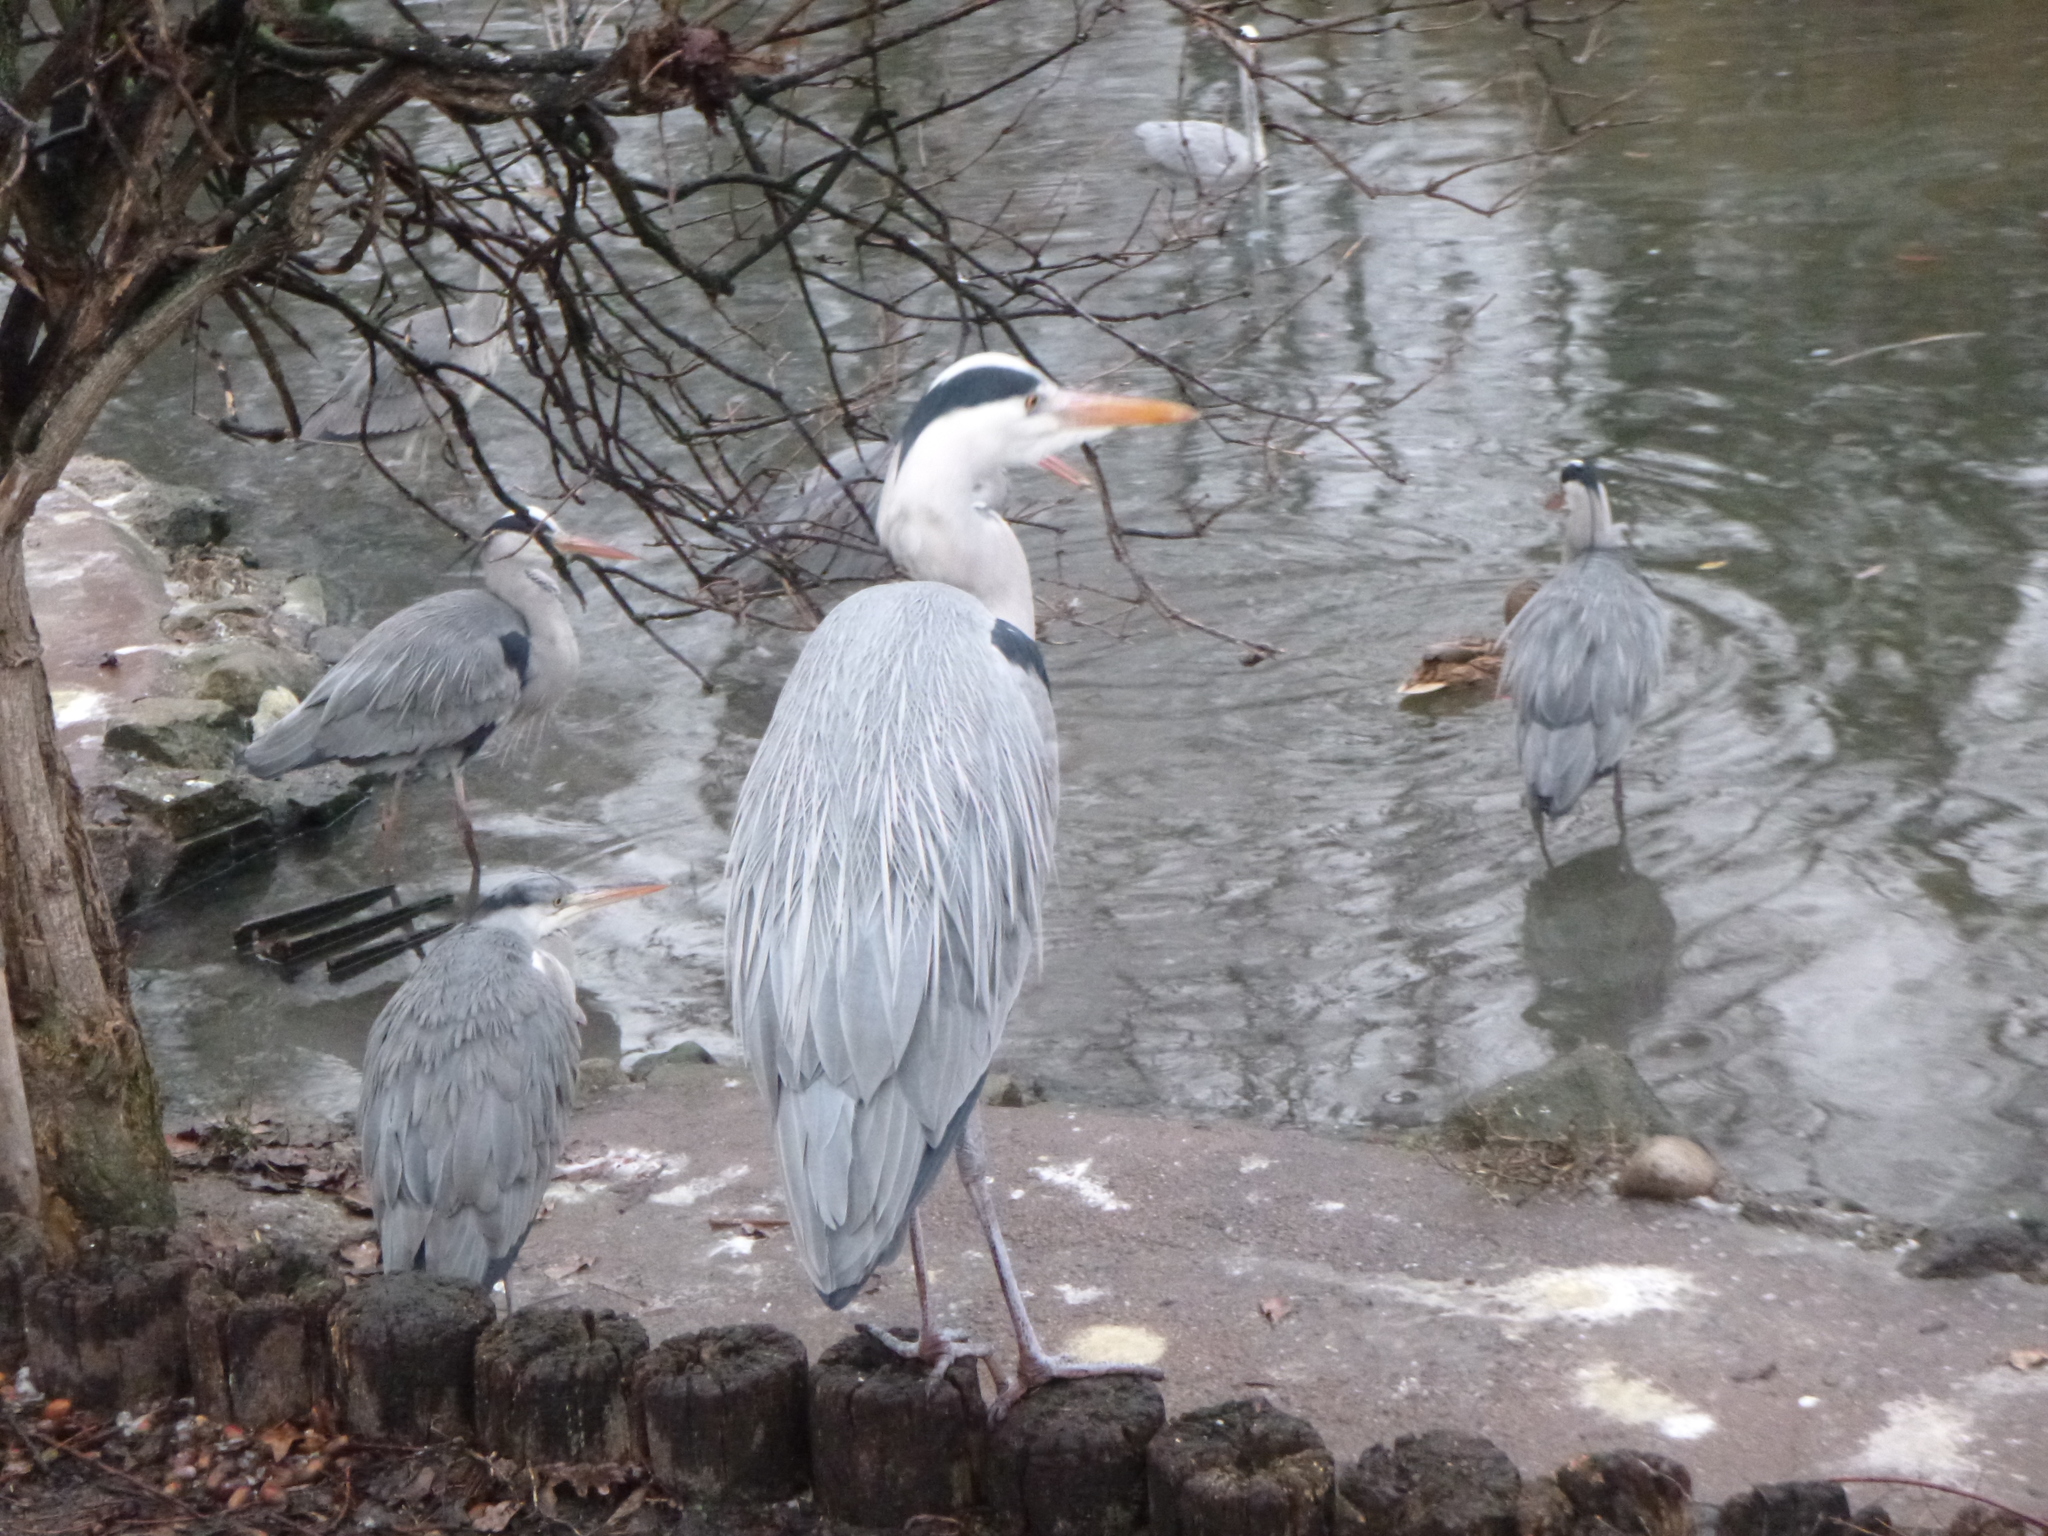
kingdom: Animalia
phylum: Chordata
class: Aves
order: Pelecaniformes
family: Ardeidae
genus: Ardea
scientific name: Ardea cinerea
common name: Grey heron
